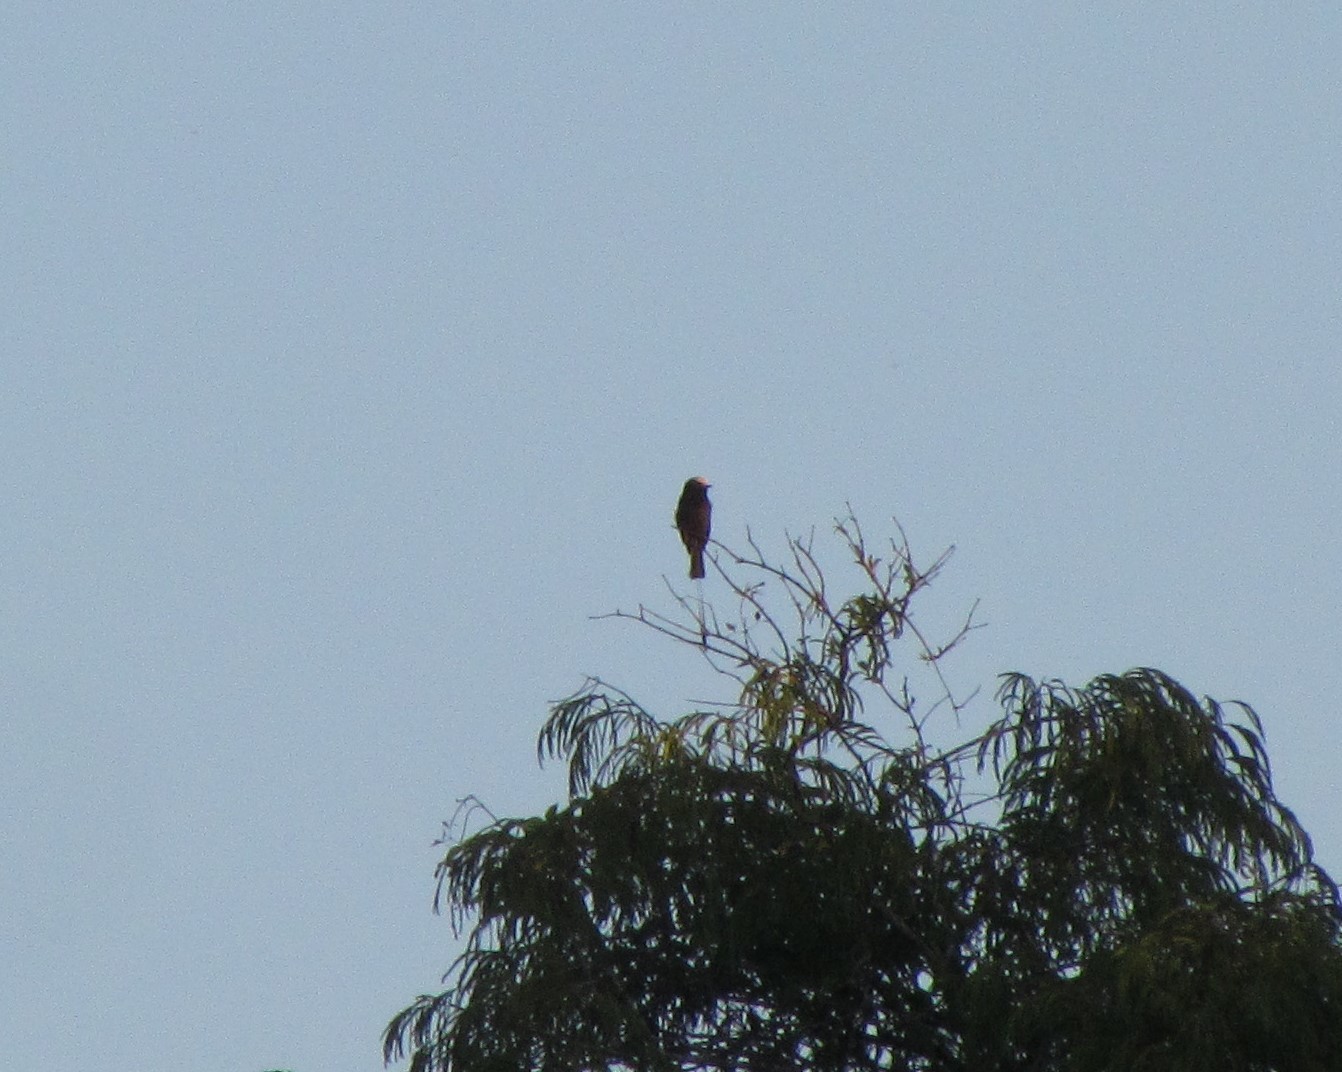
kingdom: Animalia
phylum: Chordata
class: Aves
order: Passeriformes
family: Tyrannidae
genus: Colonia
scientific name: Colonia colonus
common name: Long-tailed tyrant
